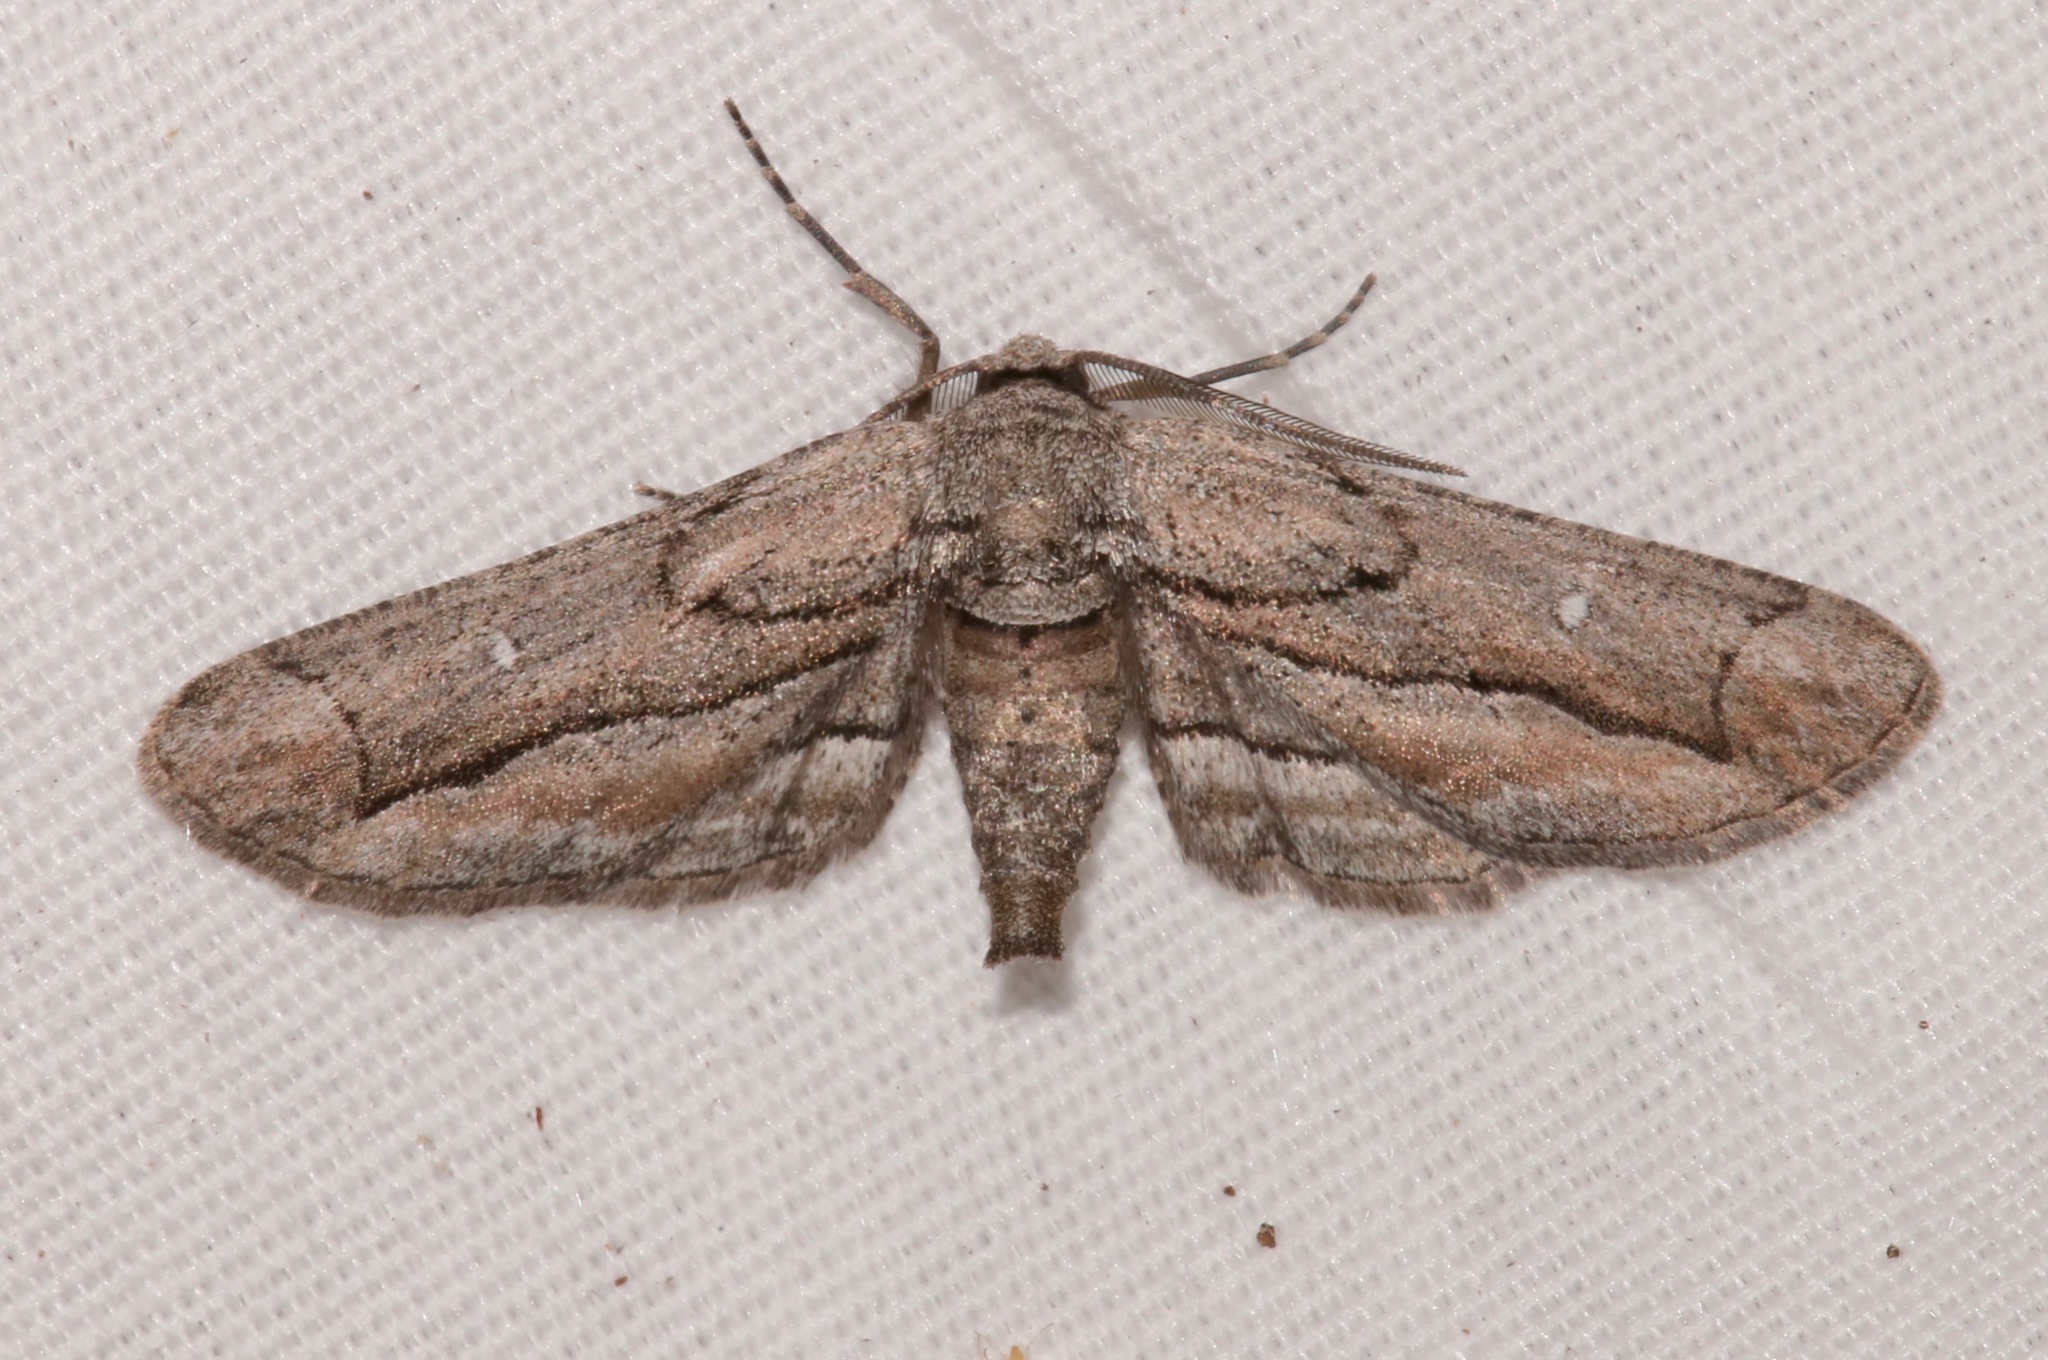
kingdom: Animalia
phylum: Arthropoda
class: Insecta
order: Lepidoptera
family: Geometridae
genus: Holochroa
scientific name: Holochroa dissociarius
